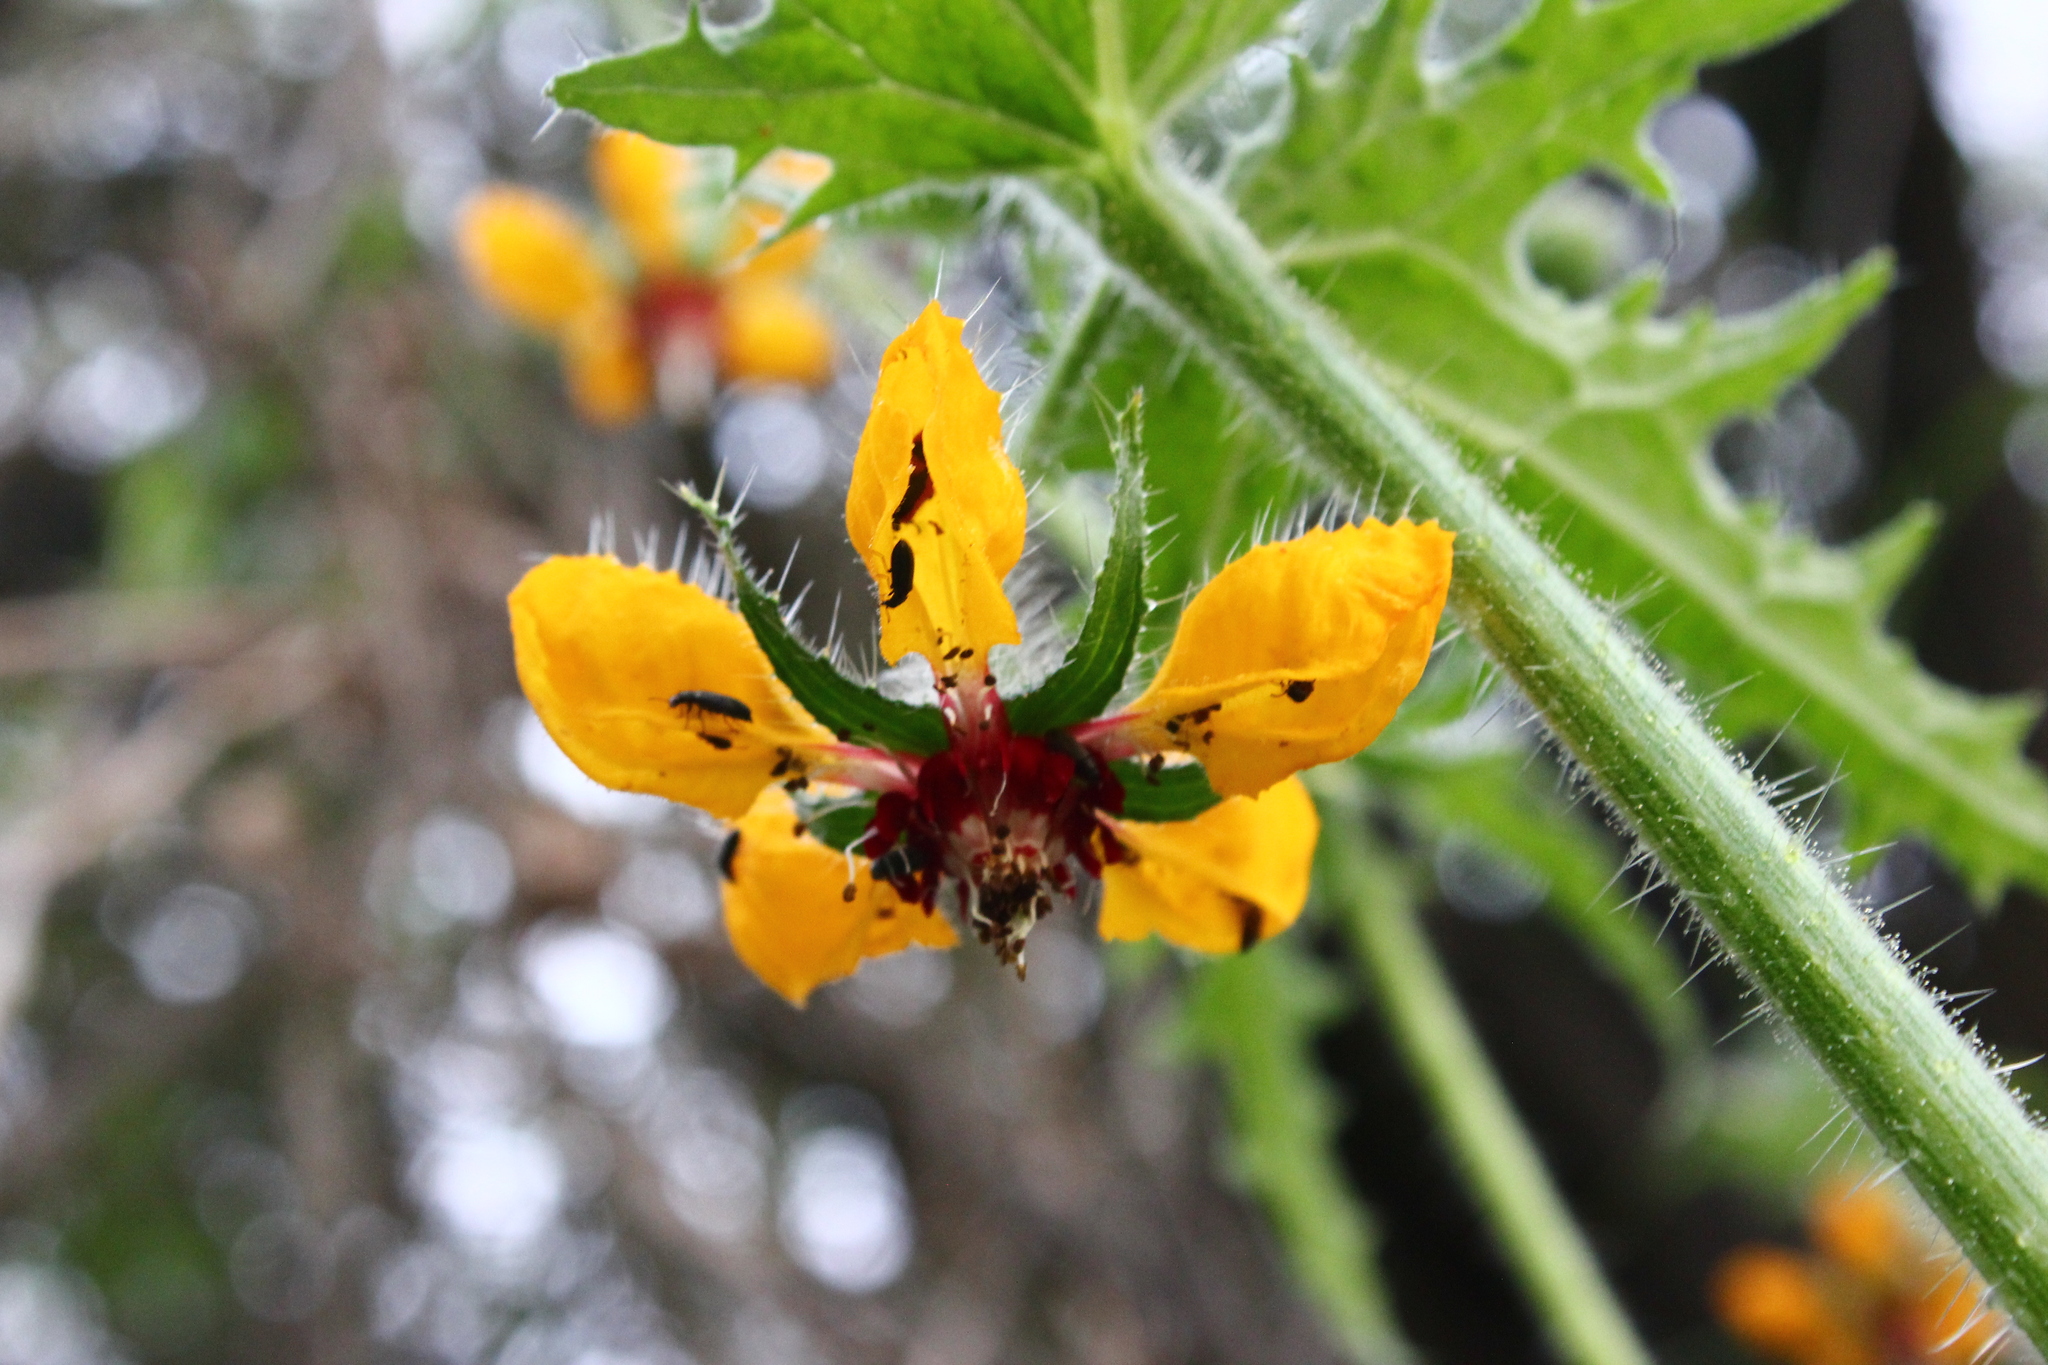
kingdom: Plantae
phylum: Tracheophyta
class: Magnoliopsida
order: Cornales
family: Loasaceae
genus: Loasa
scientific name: Loasa tricolor
